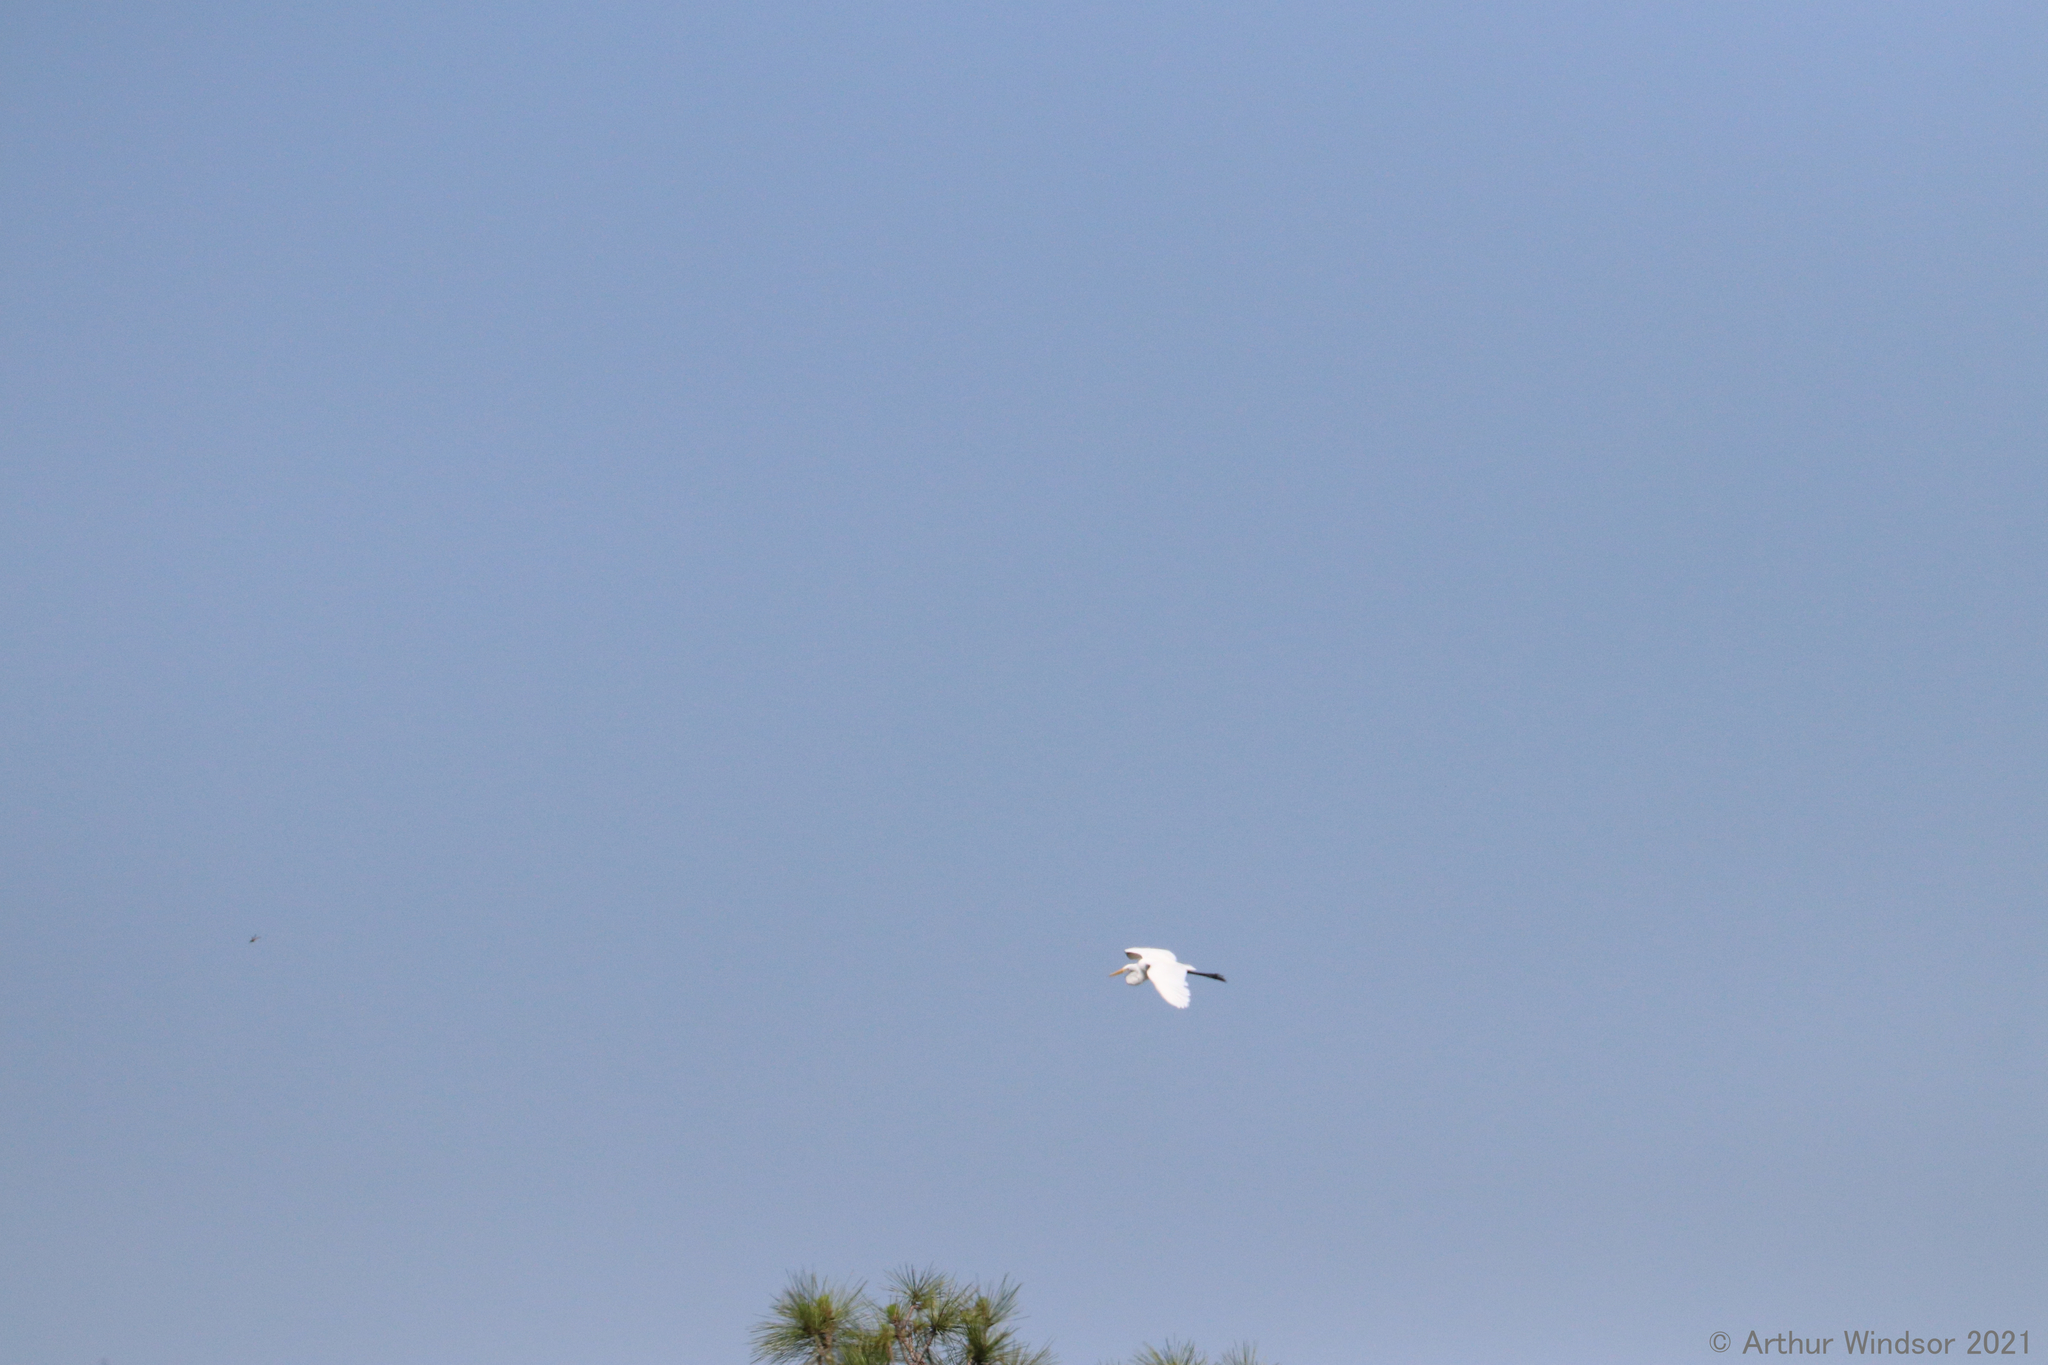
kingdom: Animalia
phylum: Chordata
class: Aves
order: Pelecaniformes
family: Ardeidae
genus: Ardea
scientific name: Ardea alba
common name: Great egret
